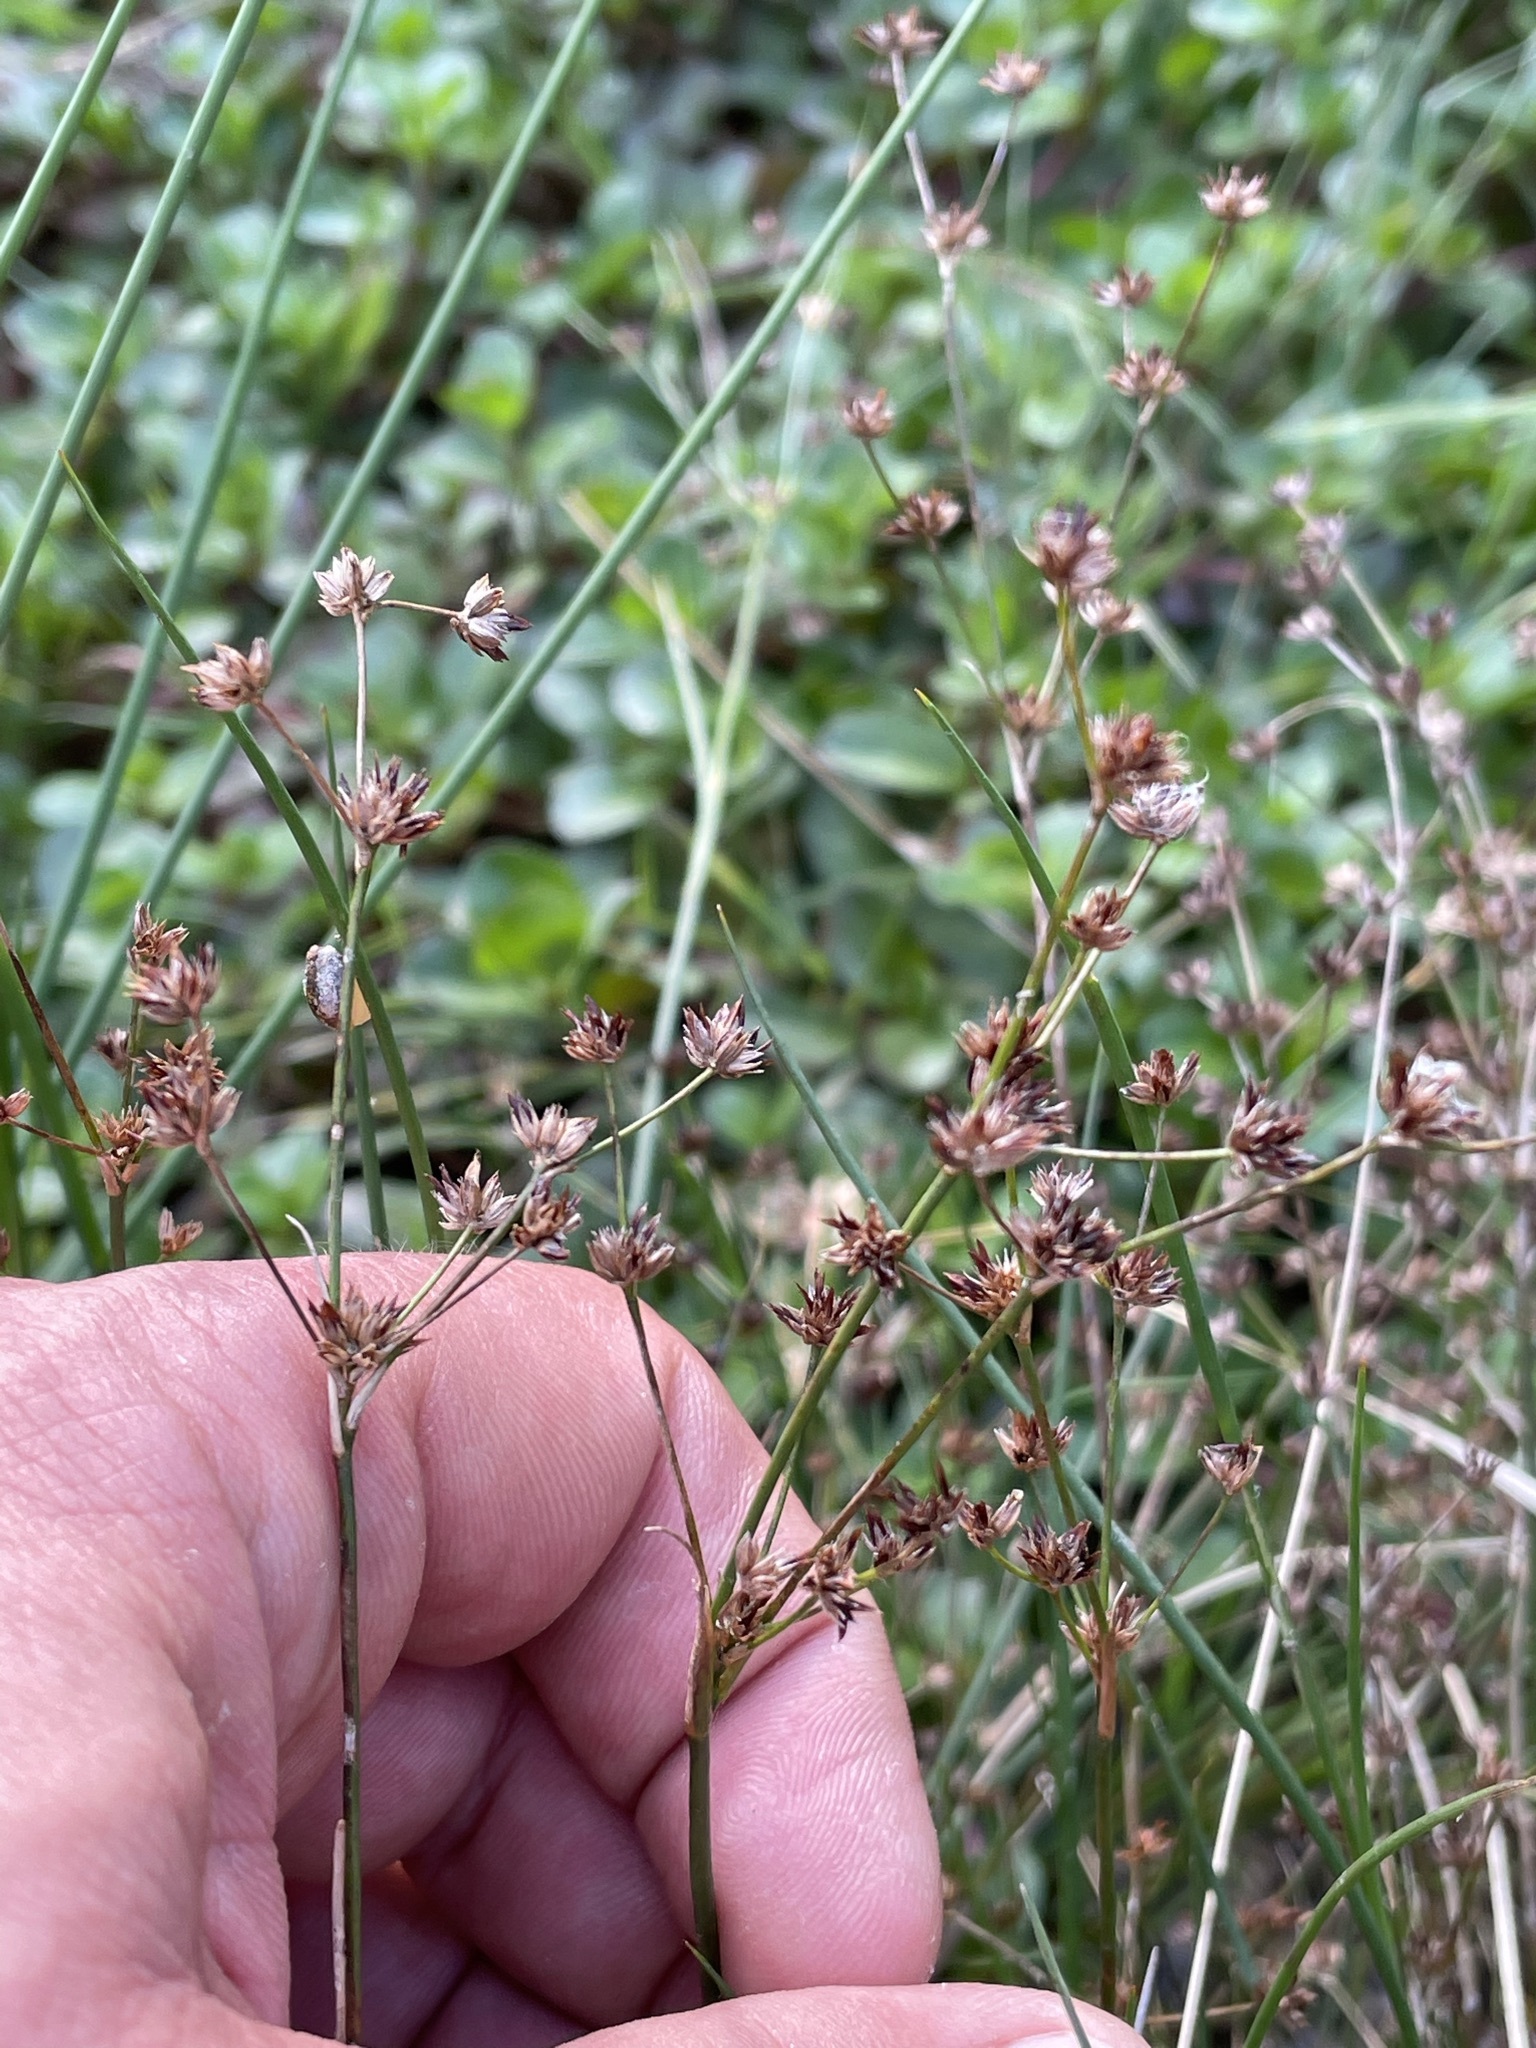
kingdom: Plantae
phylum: Tracheophyta
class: Liliopsida
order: Poales
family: Juncaceae
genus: Juncus
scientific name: Juncus articulatus
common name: Jointed rush
